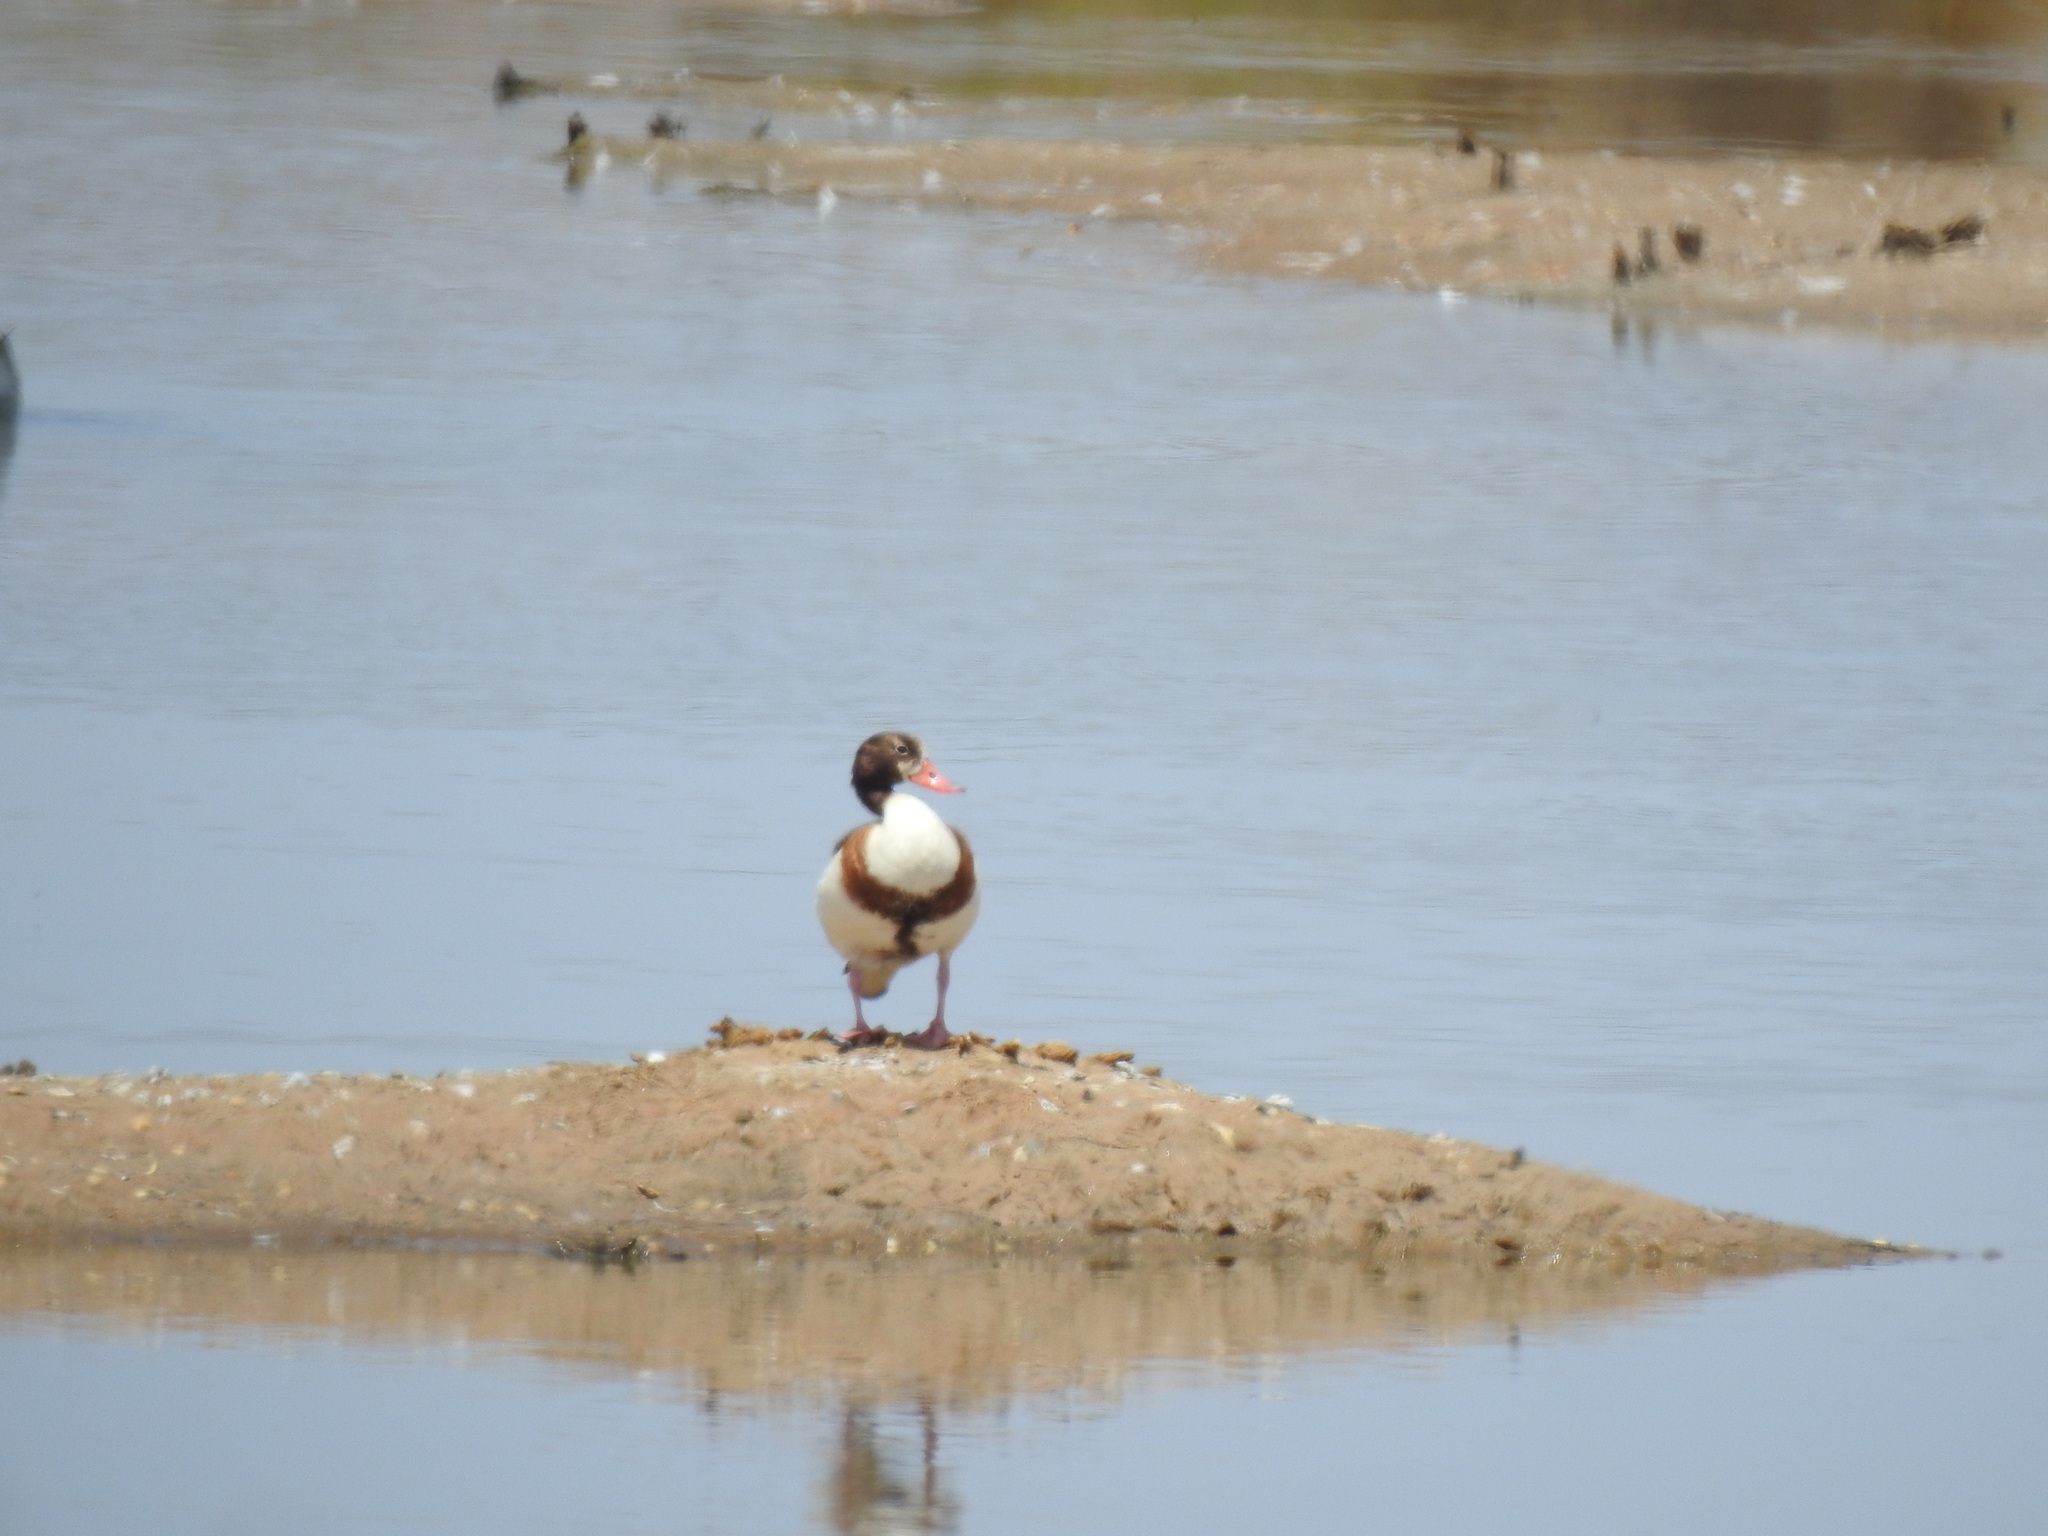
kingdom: Animalia
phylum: Chordata
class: Aves
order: Anseriformes
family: Anatidae
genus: Tadorna
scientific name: Tadorna tadorna
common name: Common shelduck
